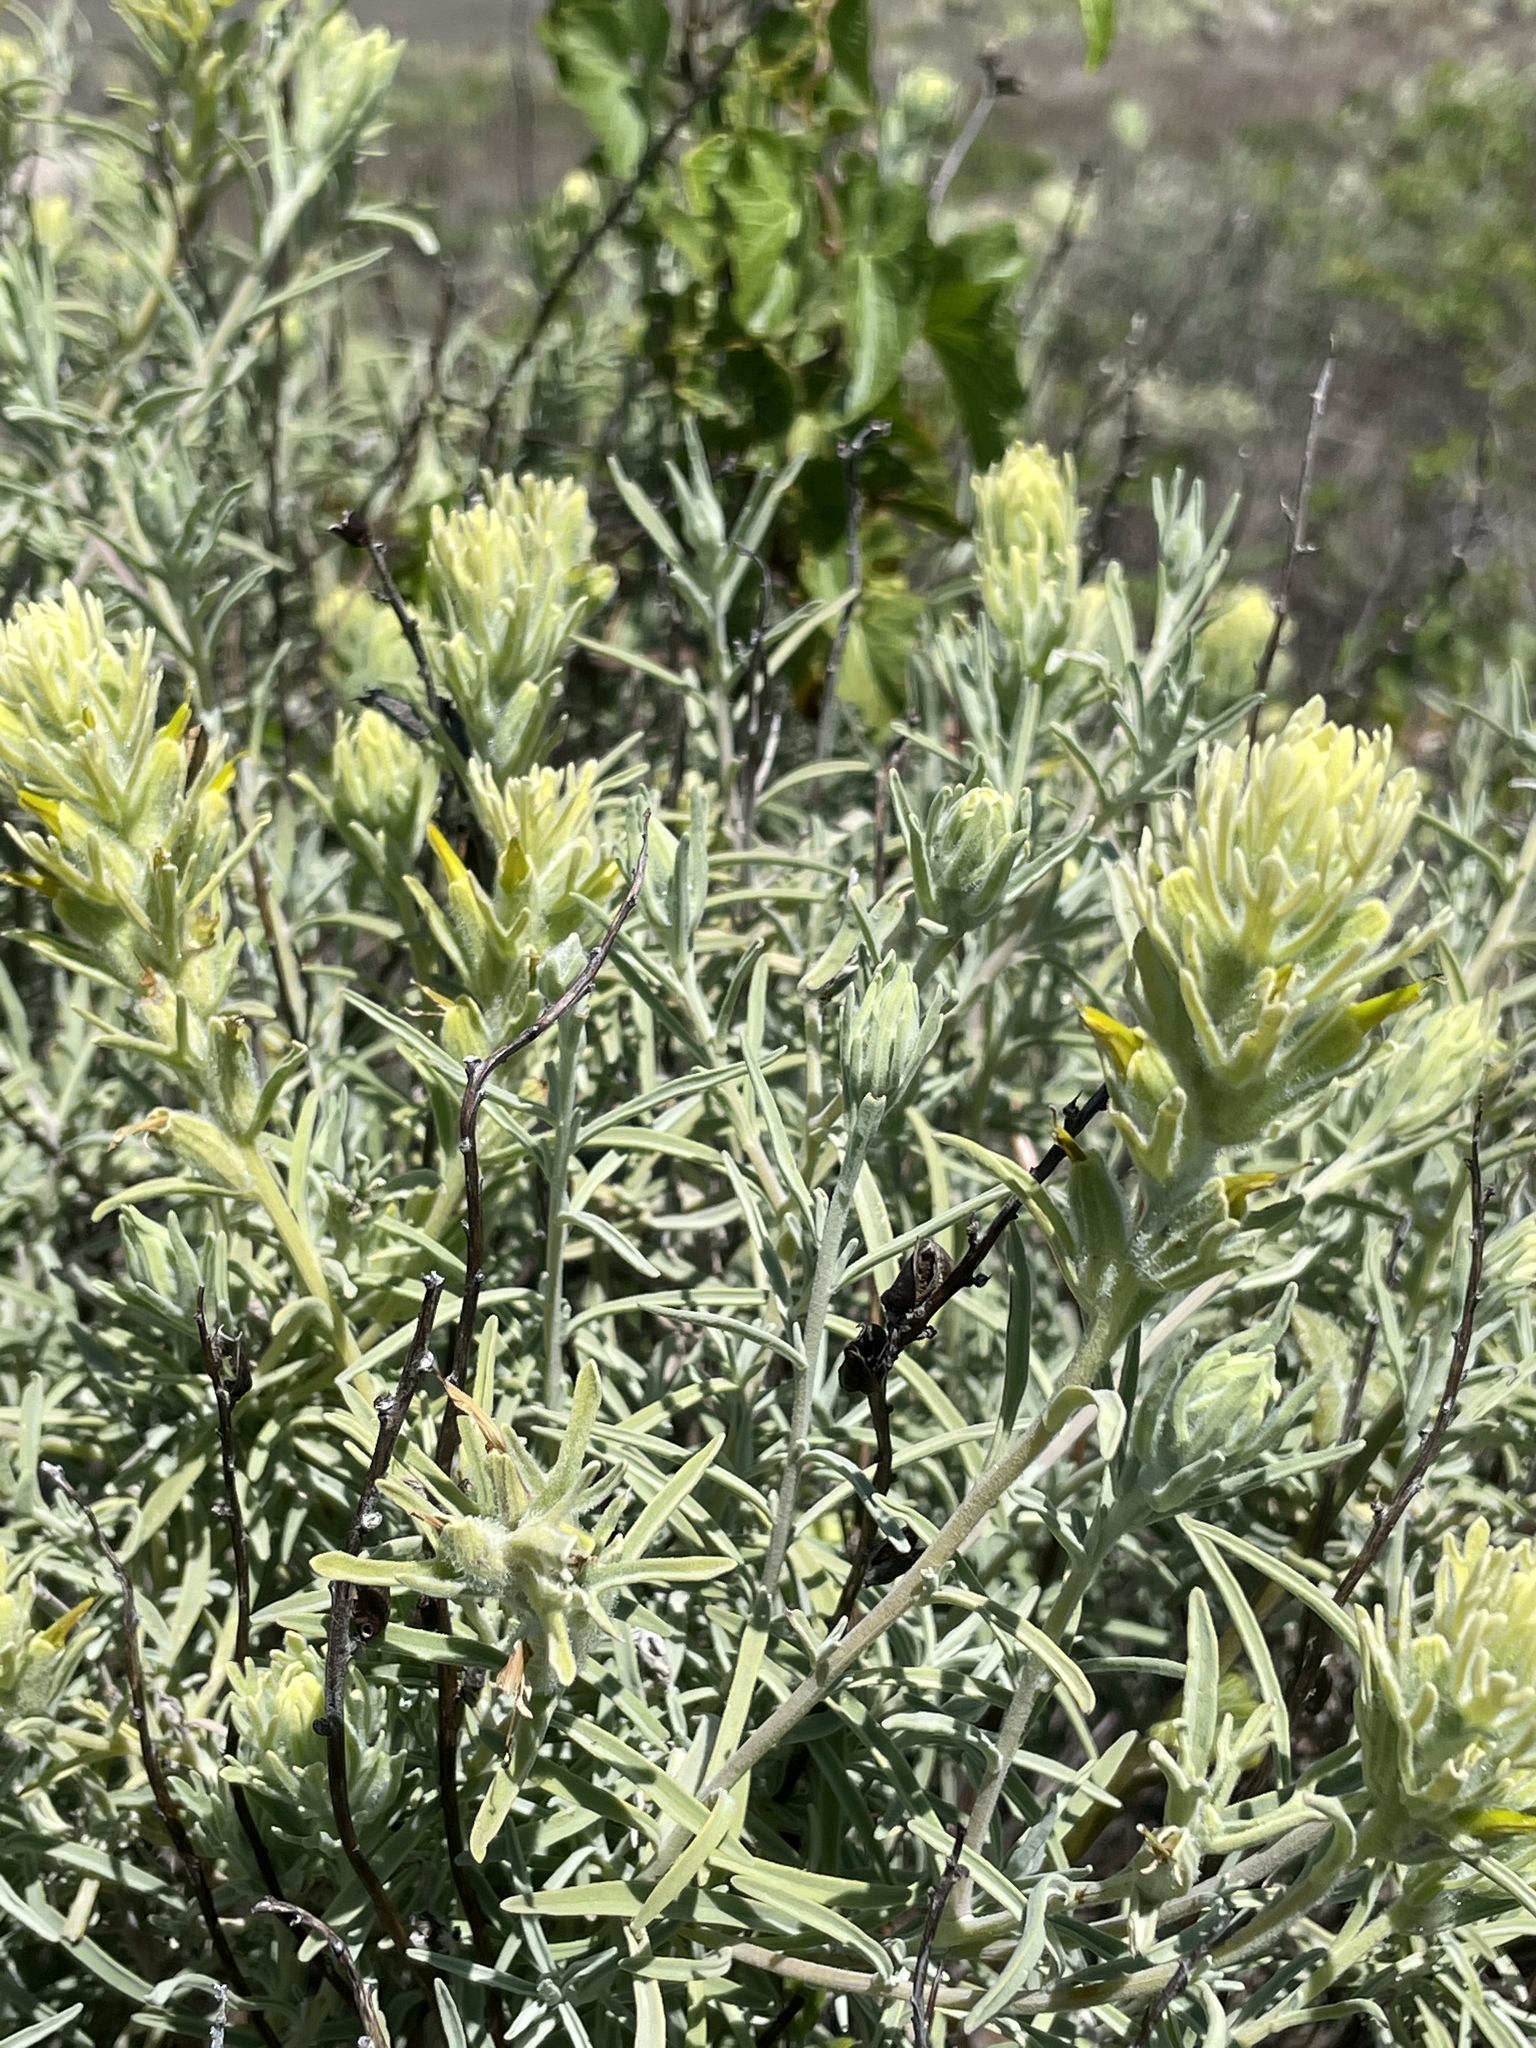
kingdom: Plantae
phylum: Tracheophyta
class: Magnoliopsida
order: Lamiales
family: Orobanchaceae
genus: Castilleja
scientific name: Castilleja grisea
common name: San clemente island indian paintbrush
